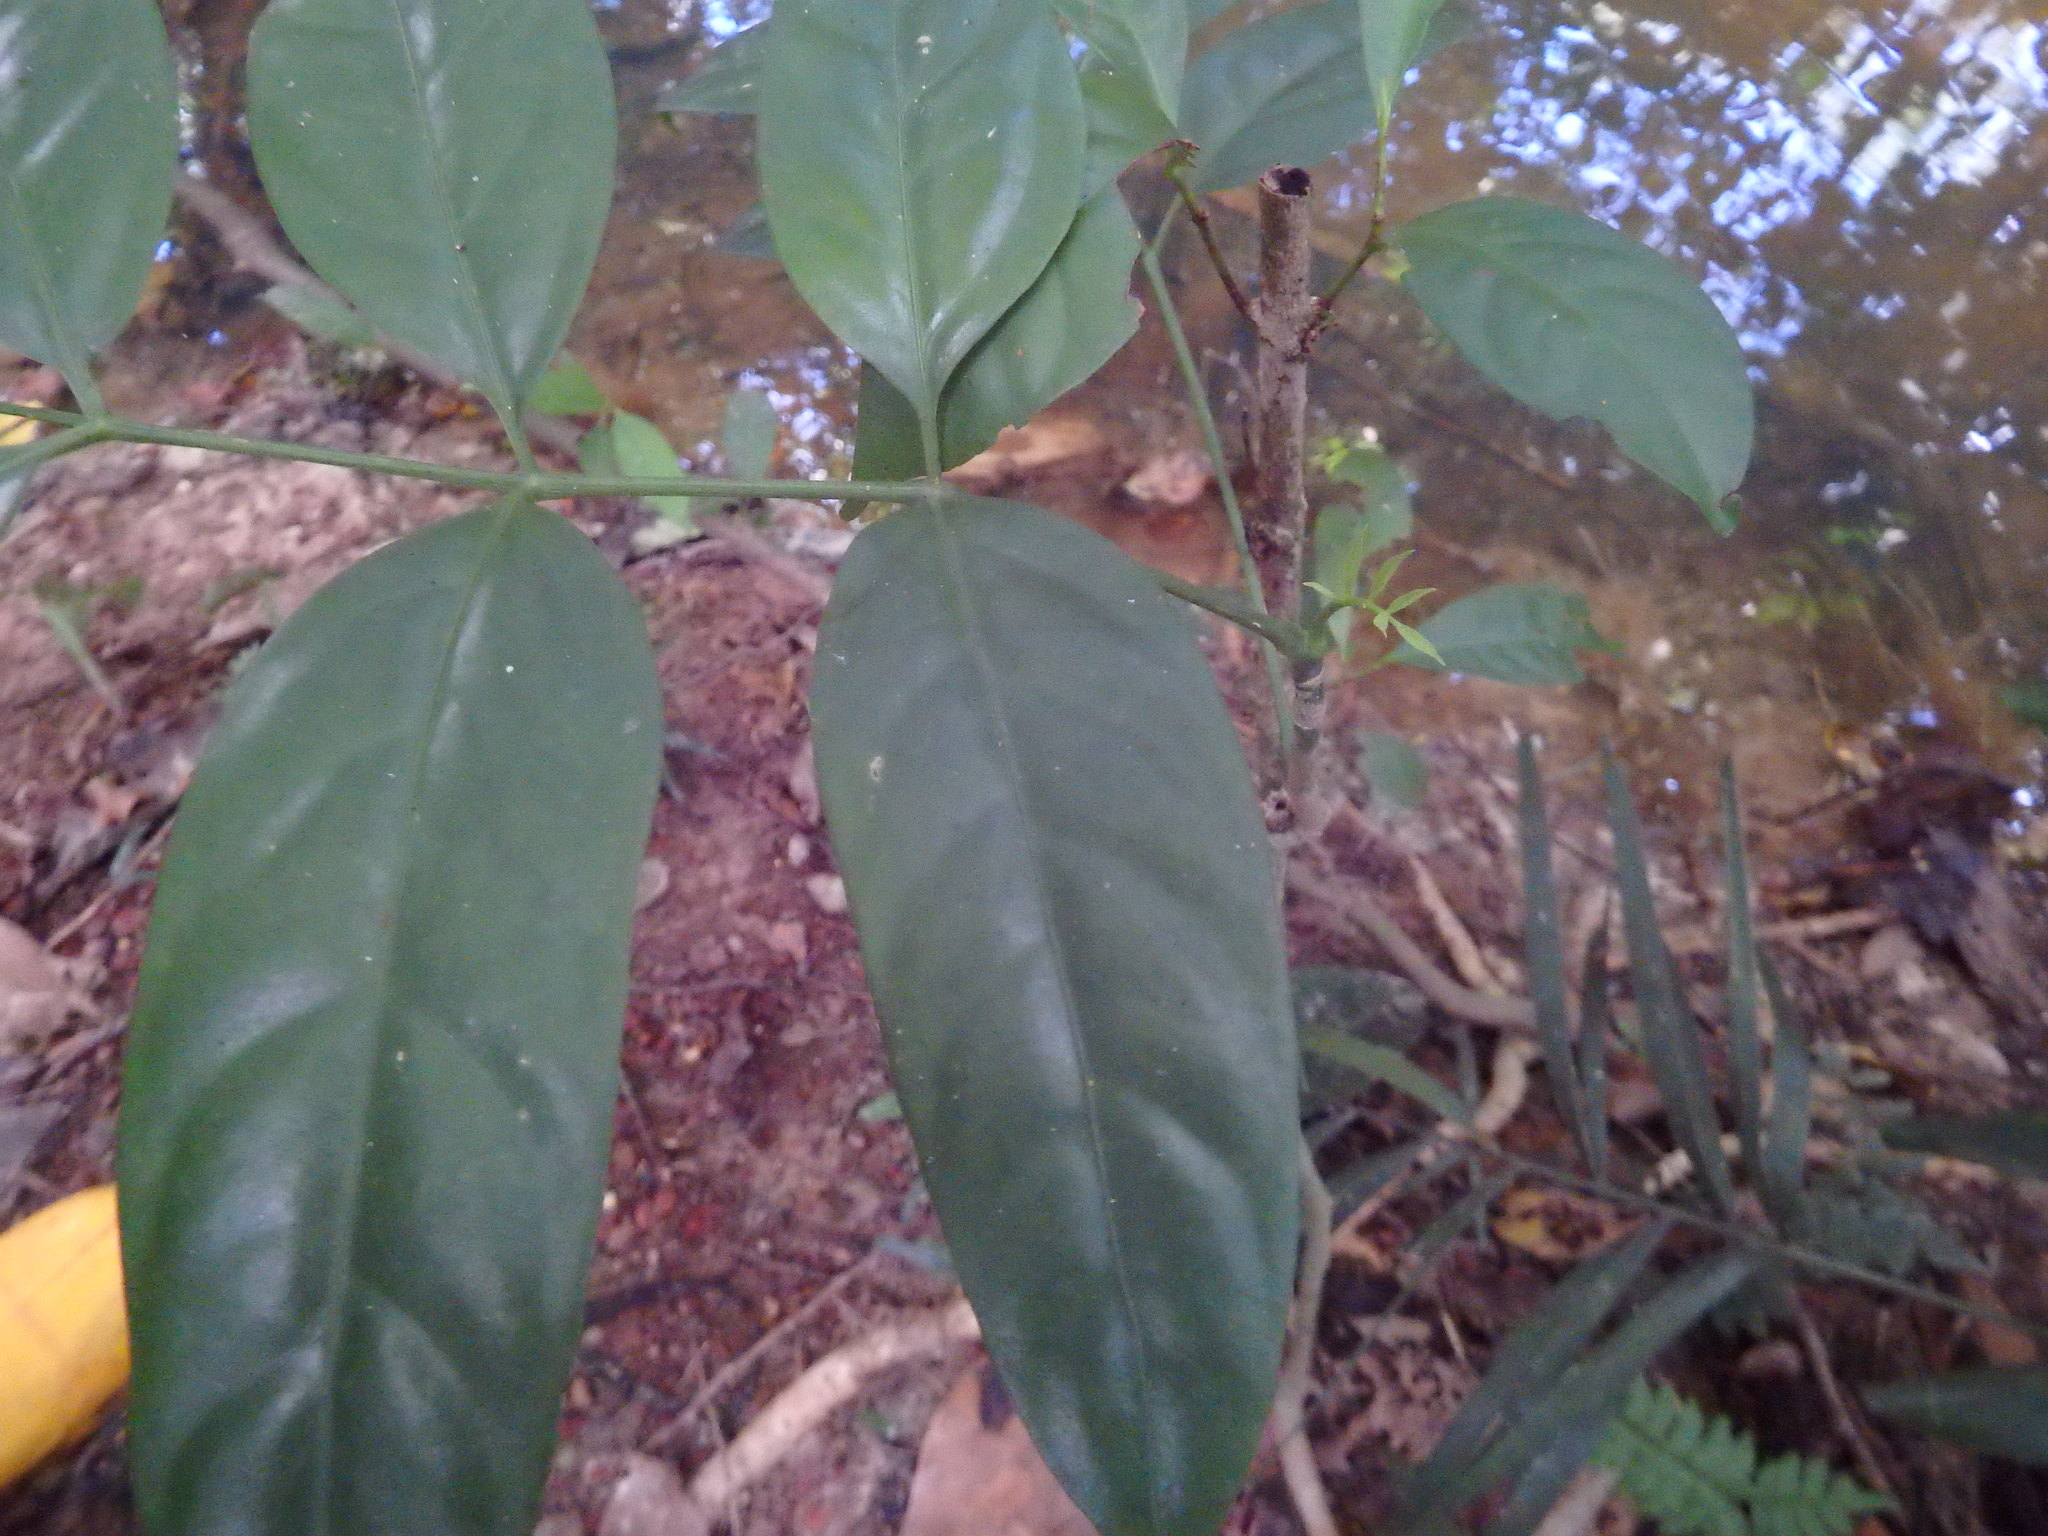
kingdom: Plantae
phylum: Tracheophyta
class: Magnoliopsida
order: Apiales
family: Araliaceae
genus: Polyscias
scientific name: Polyscias diversifolia
